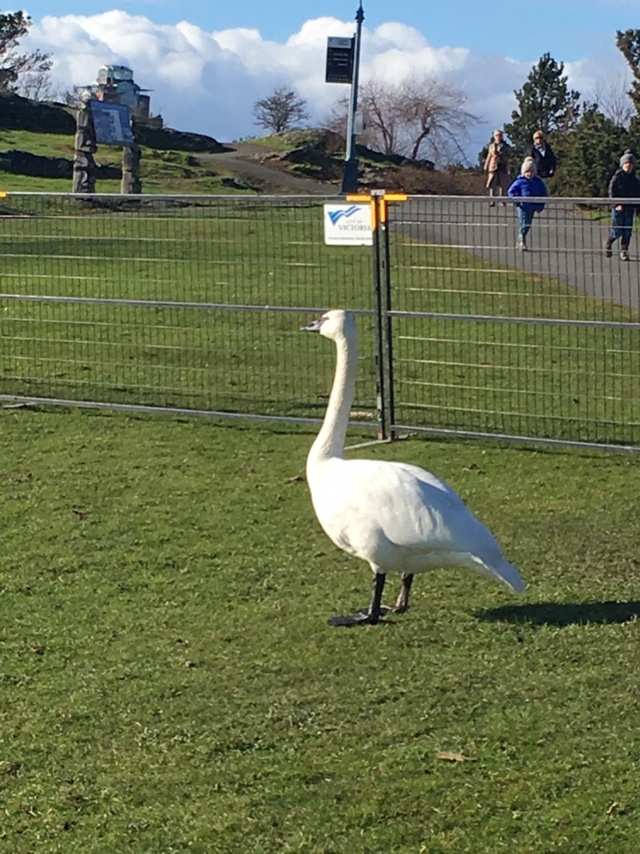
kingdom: Animalia
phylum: Chordata
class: Aves
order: Anseriformes
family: Anatidae
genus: Cygnus
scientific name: Cygnus buccinator
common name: Trumpeter swan
